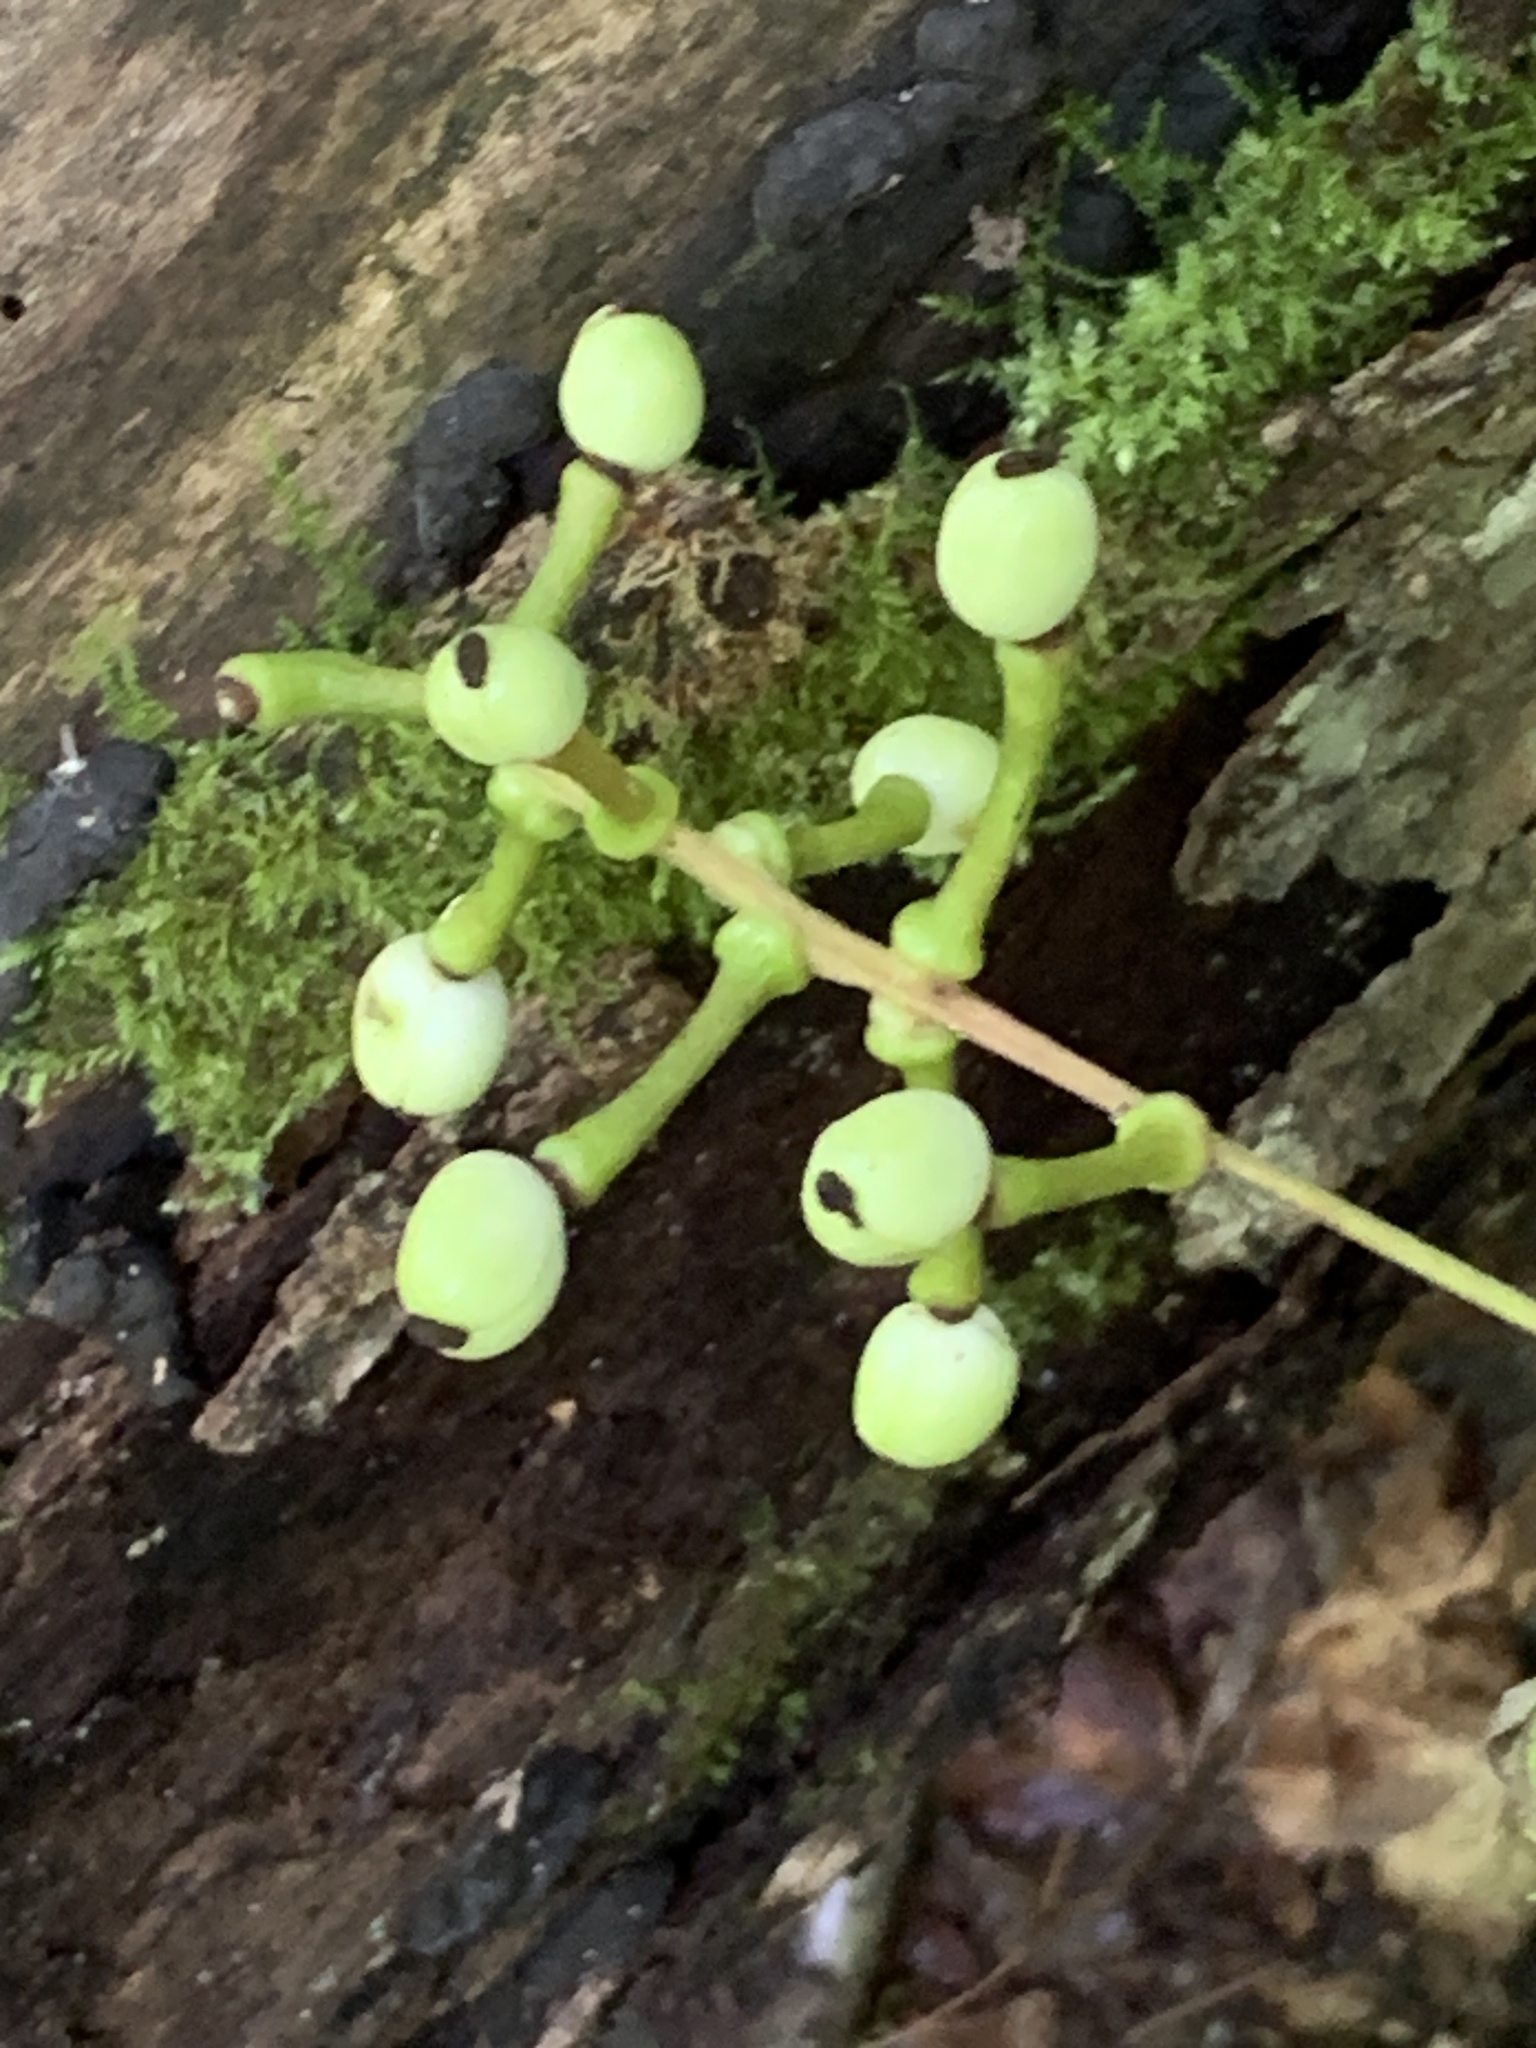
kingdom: Plantae
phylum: Tracheophyta
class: Magnoliopsida
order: Ranunculales
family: Ranunculaceae
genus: Actaea
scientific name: Actaea pachypoda
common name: Doll's-eyes
